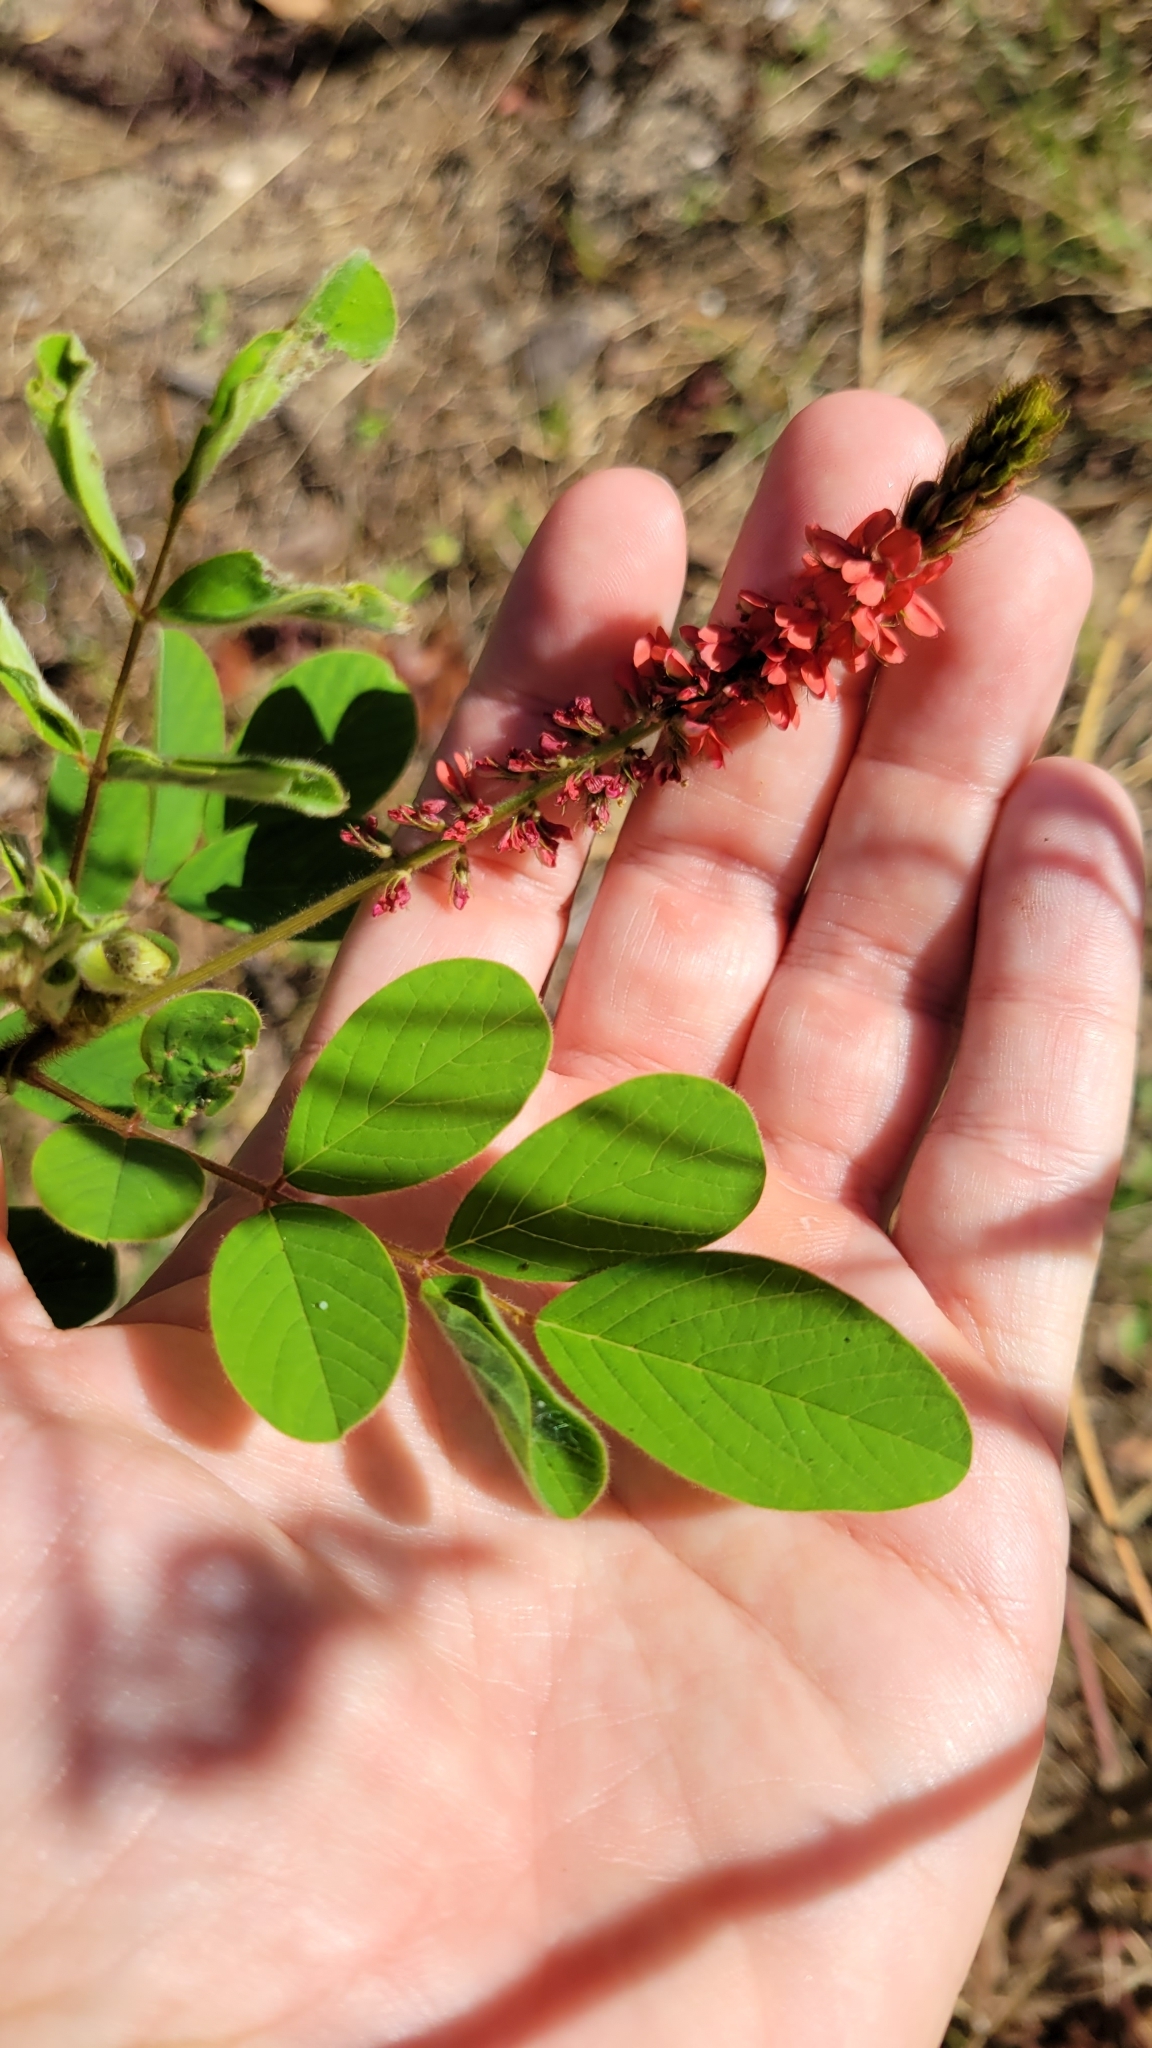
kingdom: Plantae
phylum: Tracheophyta
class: Magnoliopsida
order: Fabales
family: Fabaceae
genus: Indigofera
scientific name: Indigofera hirsuta
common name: Hairy indigo
